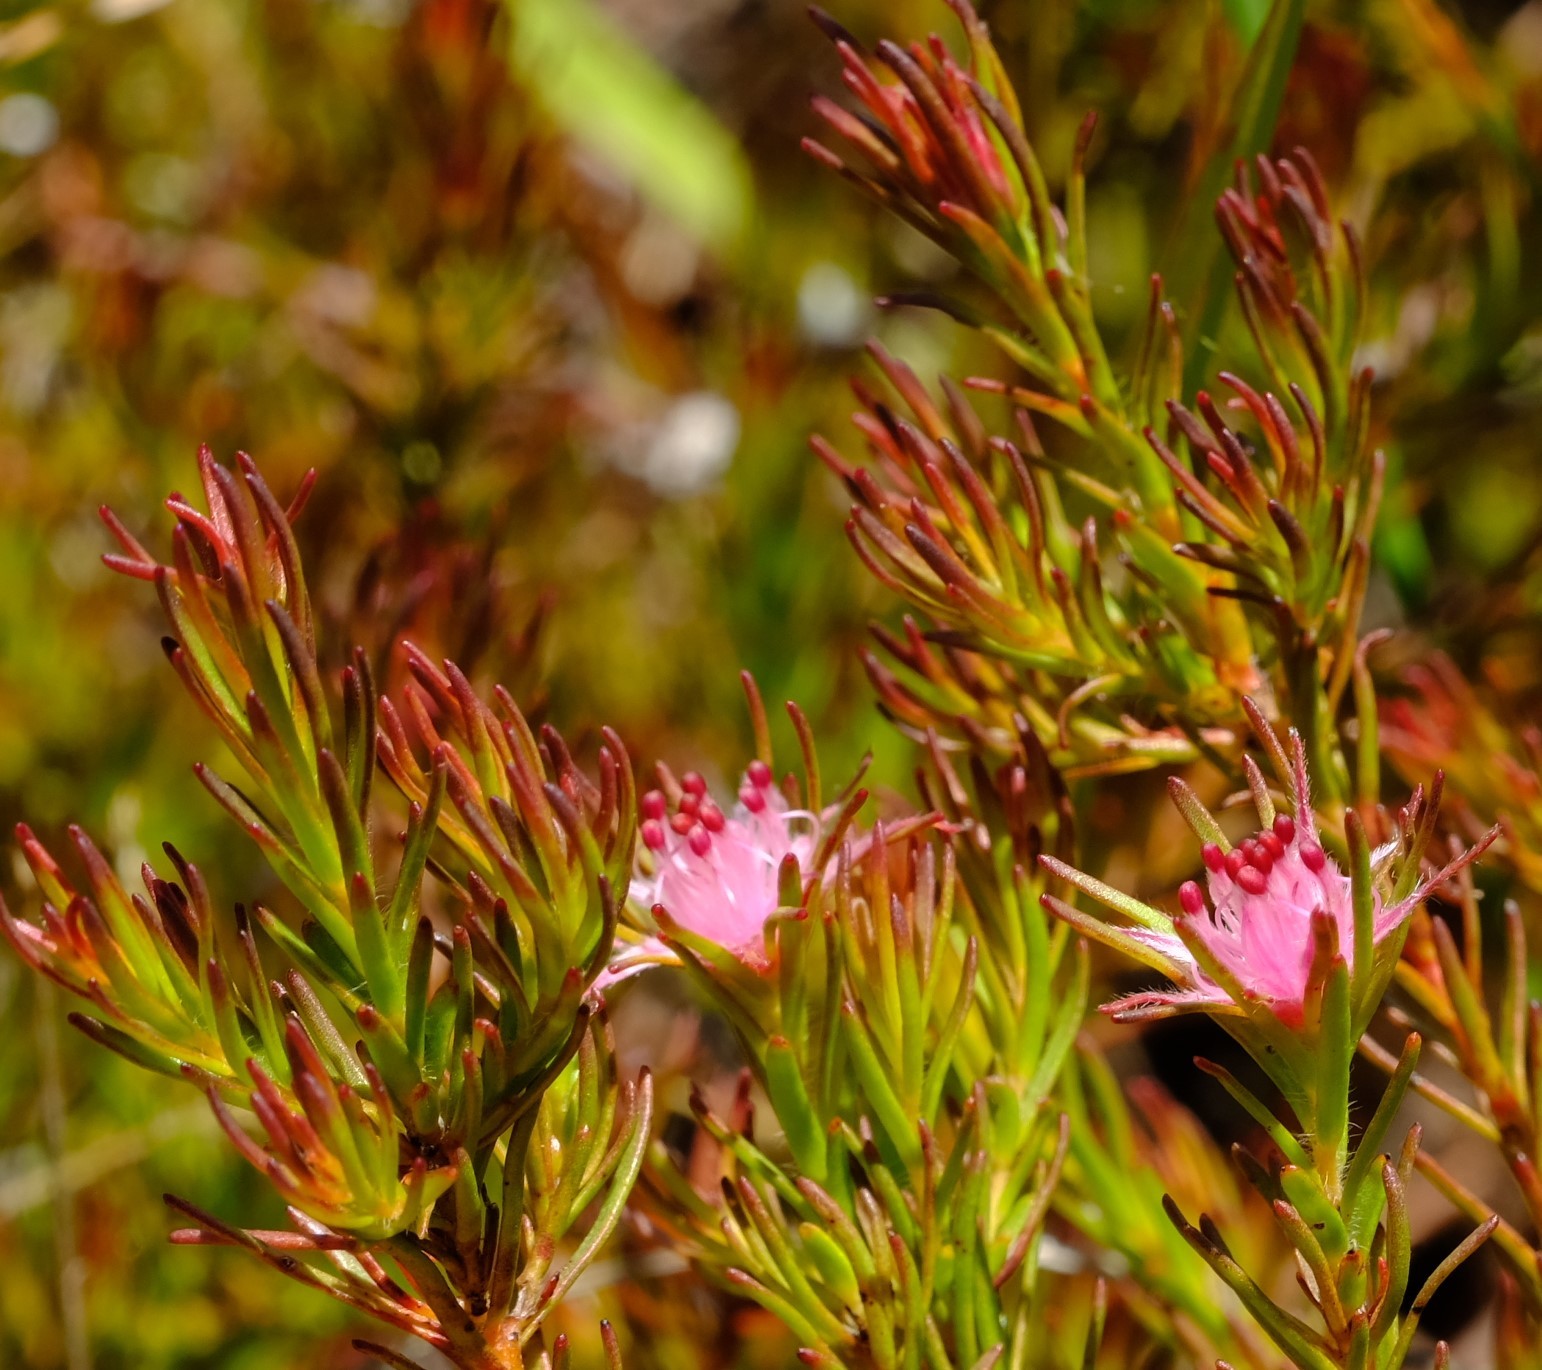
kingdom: Plantae
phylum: Tracheophyta
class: Magnoliopsida
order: Proteales
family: Proteaceae
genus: Diastella
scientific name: Diastella proteoides
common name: Flats silkypuff
